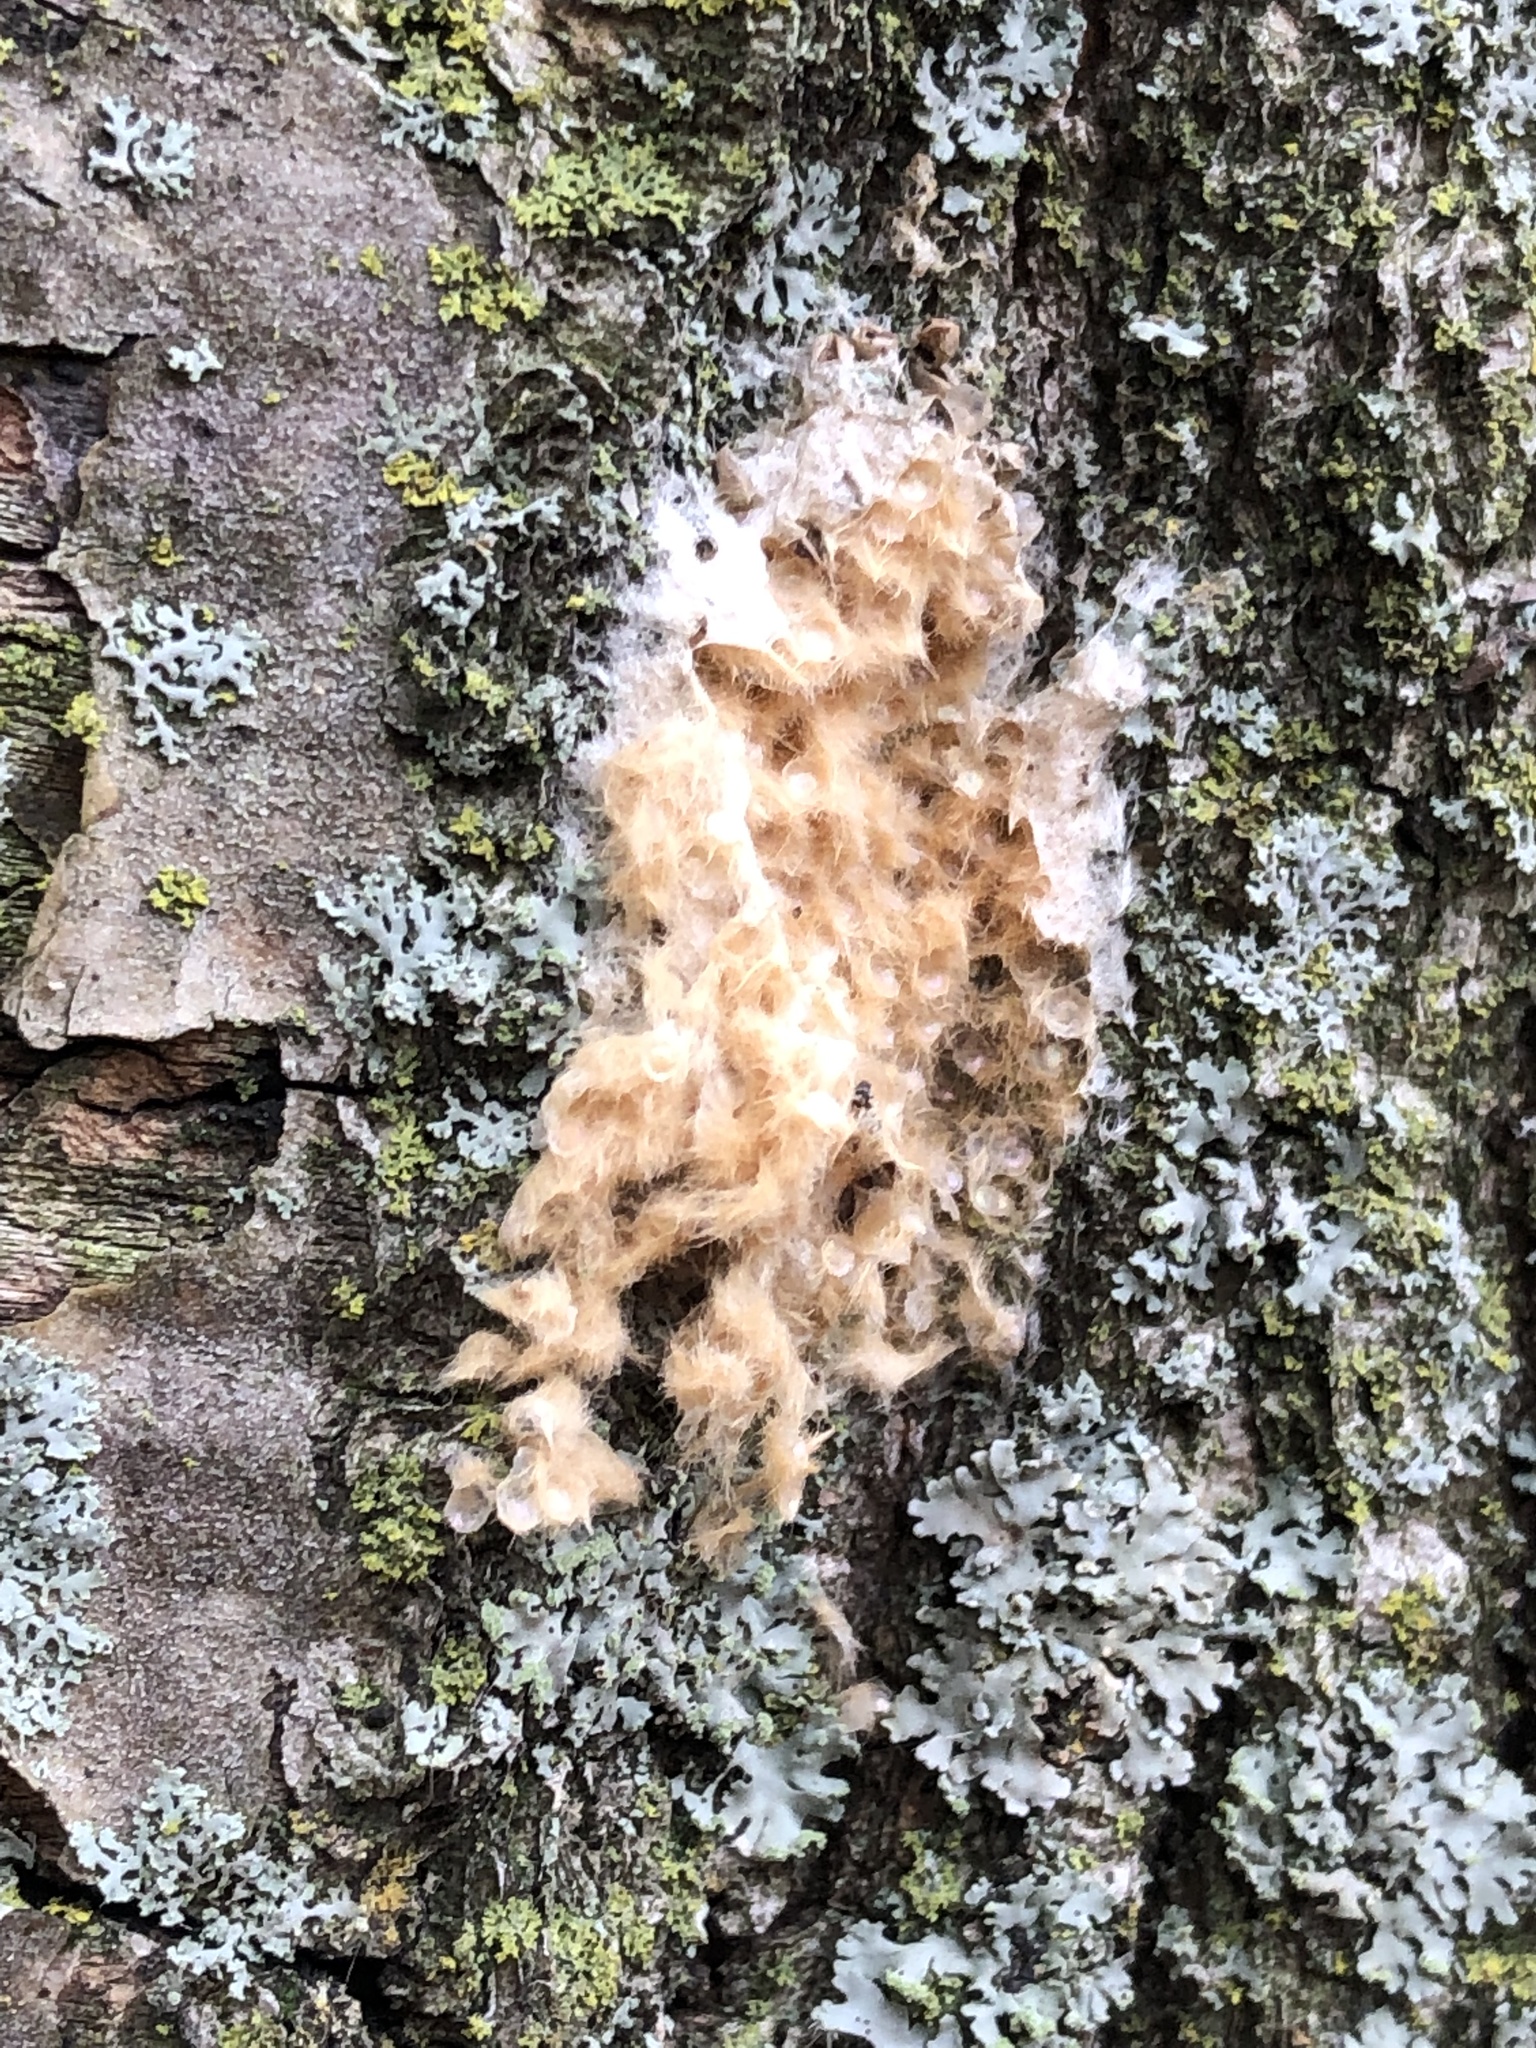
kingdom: Animalia
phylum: Arthropoda
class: Insecta
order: Lepidoptera
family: Erebidae
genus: Lymantria
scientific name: Lymantria dispar
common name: Gypsy moth
